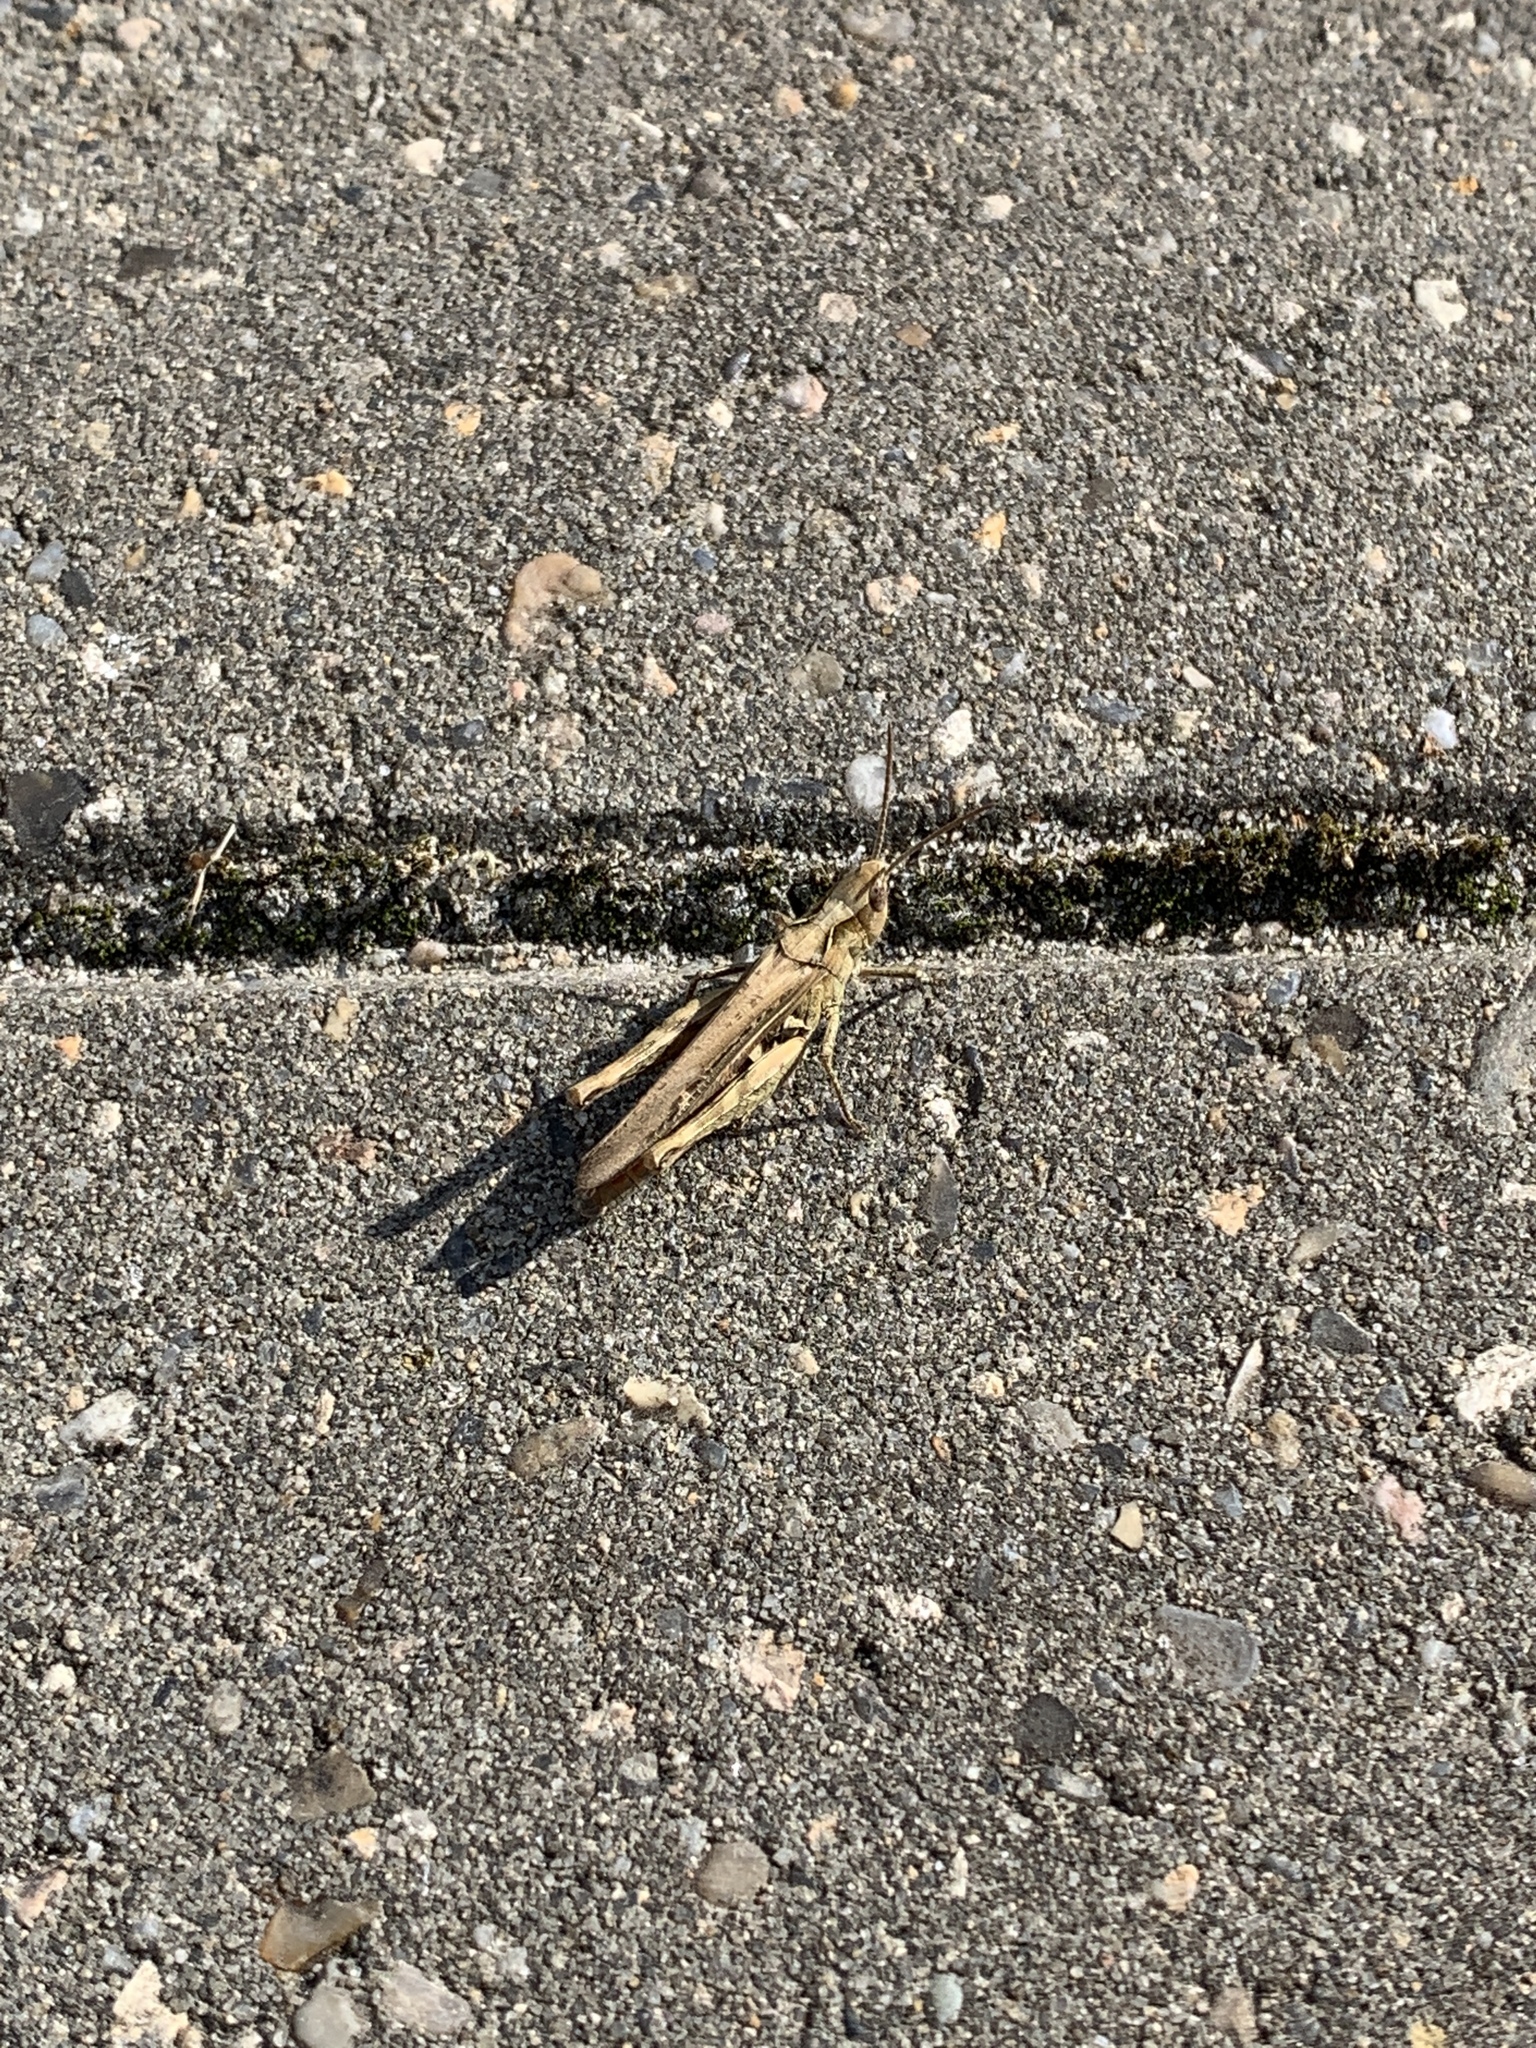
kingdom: Animalia
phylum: Arthropoda
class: Insecta
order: Orthoptera
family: Acrididae
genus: Chorthippus
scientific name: Chorthippus brunneus
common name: Field grasshopper
